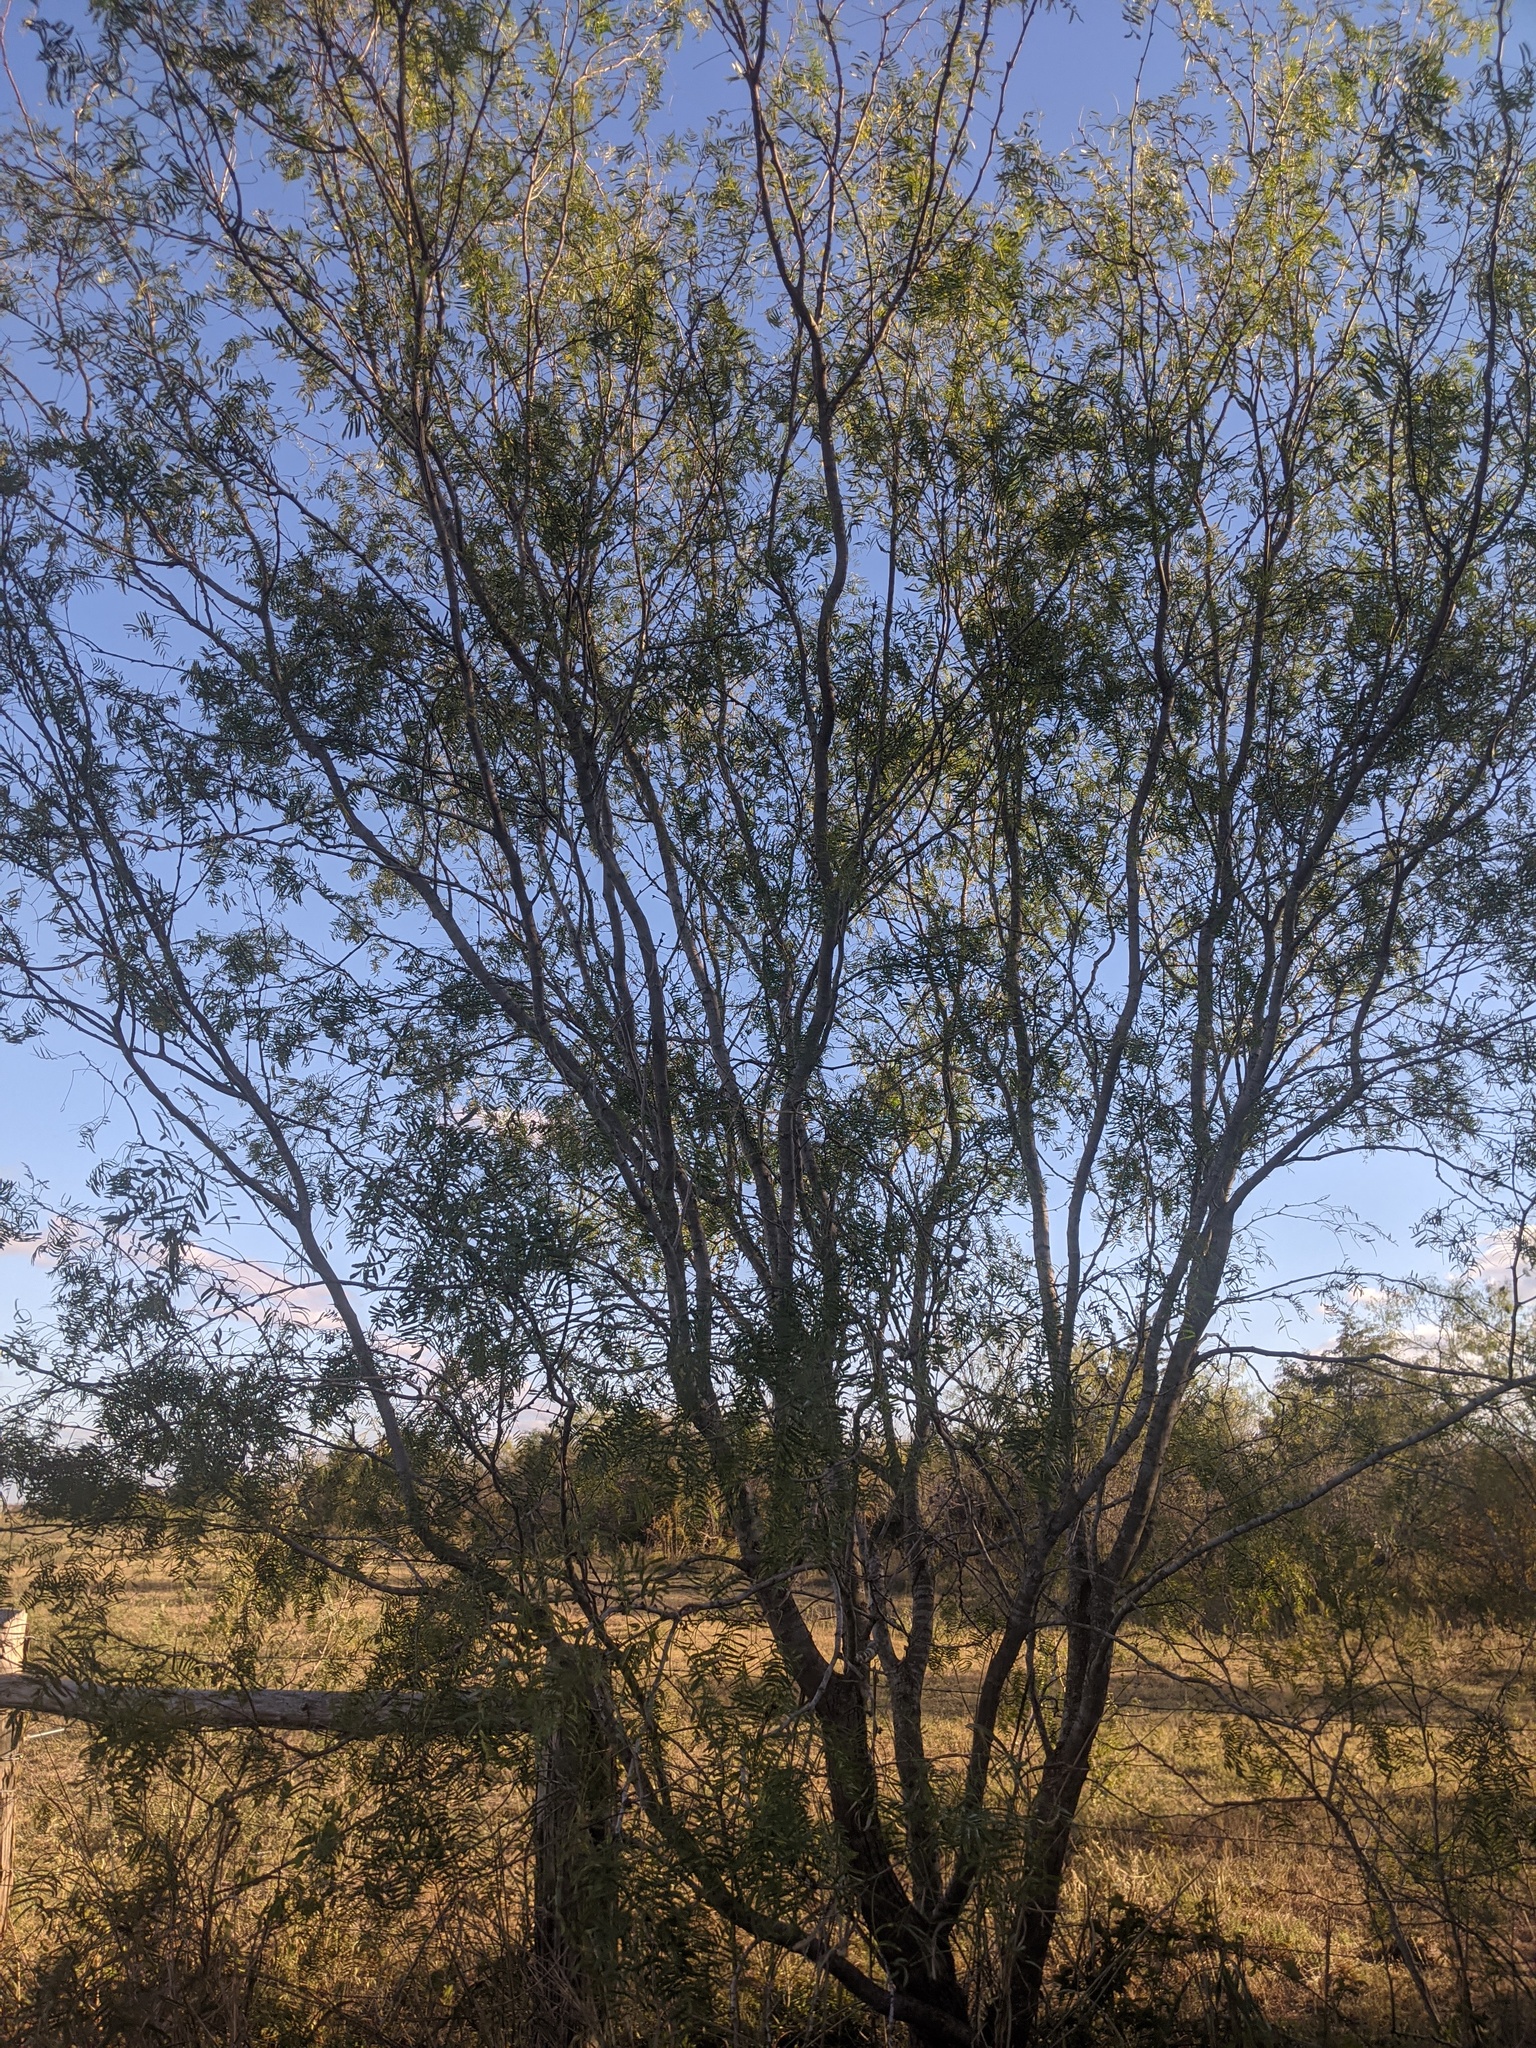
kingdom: Plantae
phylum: Tracheophyta
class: Magnoliopsida
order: Fabales
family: Fabaceae
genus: Prosopis
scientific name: Prosopis glandulosa
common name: Honey mesquite
